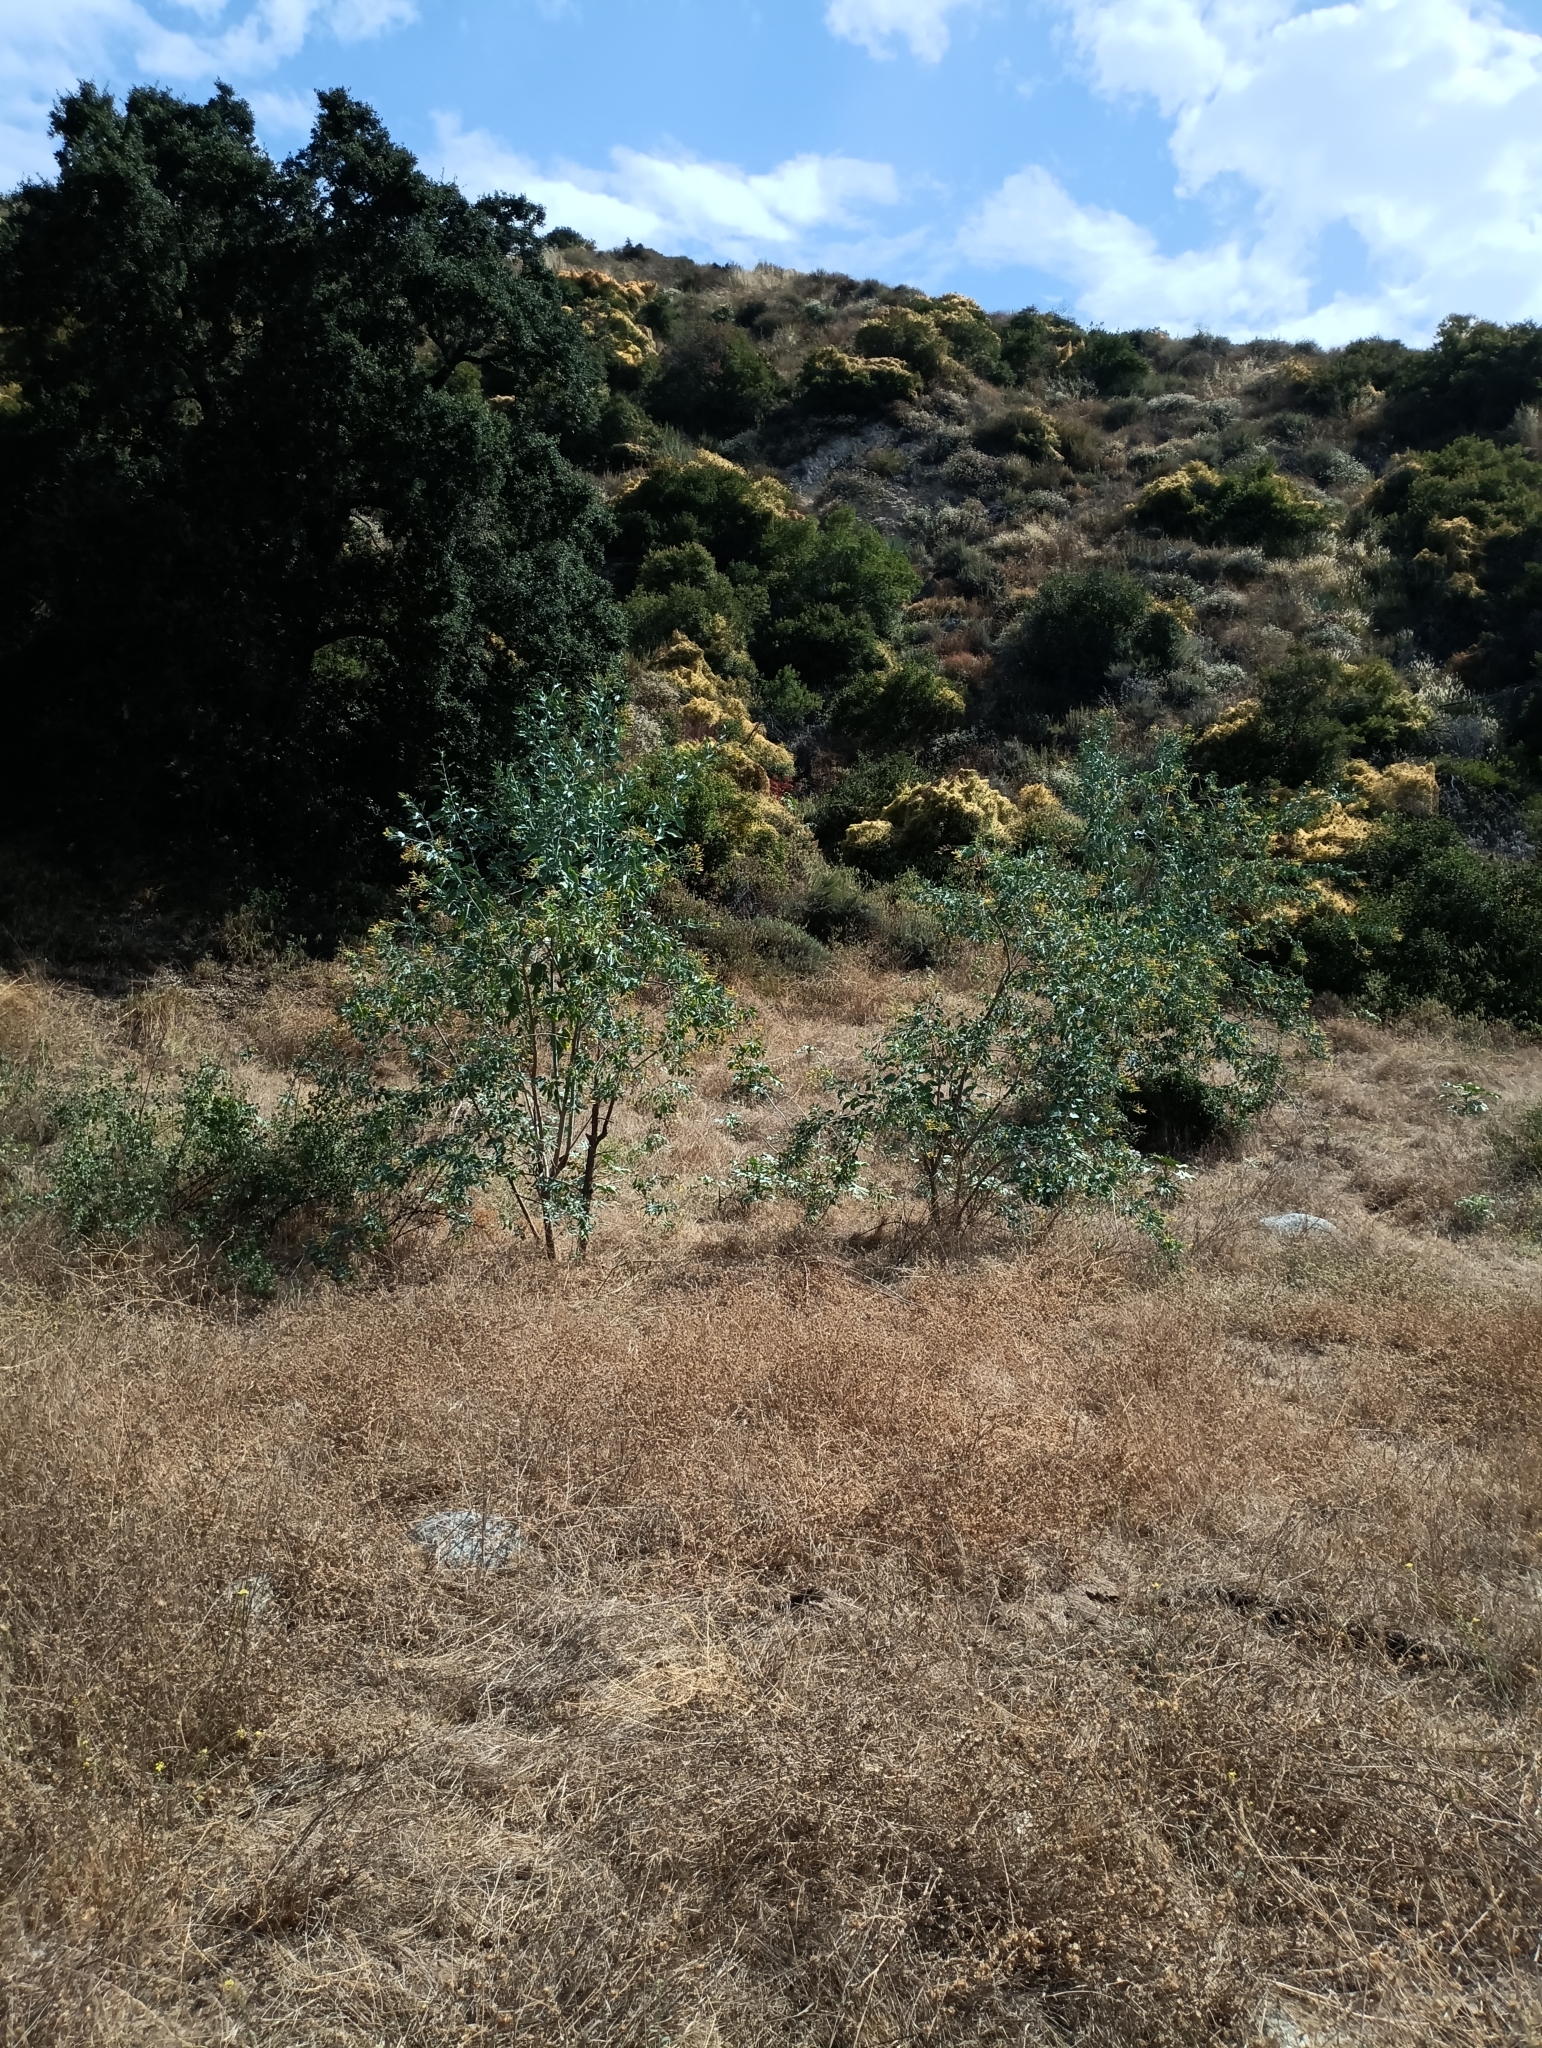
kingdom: Plantae
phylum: Tracheophyta
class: Magnoliopsida
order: Solanales
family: Solanaceae
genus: Nicotiana
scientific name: Nicotiana glauca
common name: Tree tobacco
